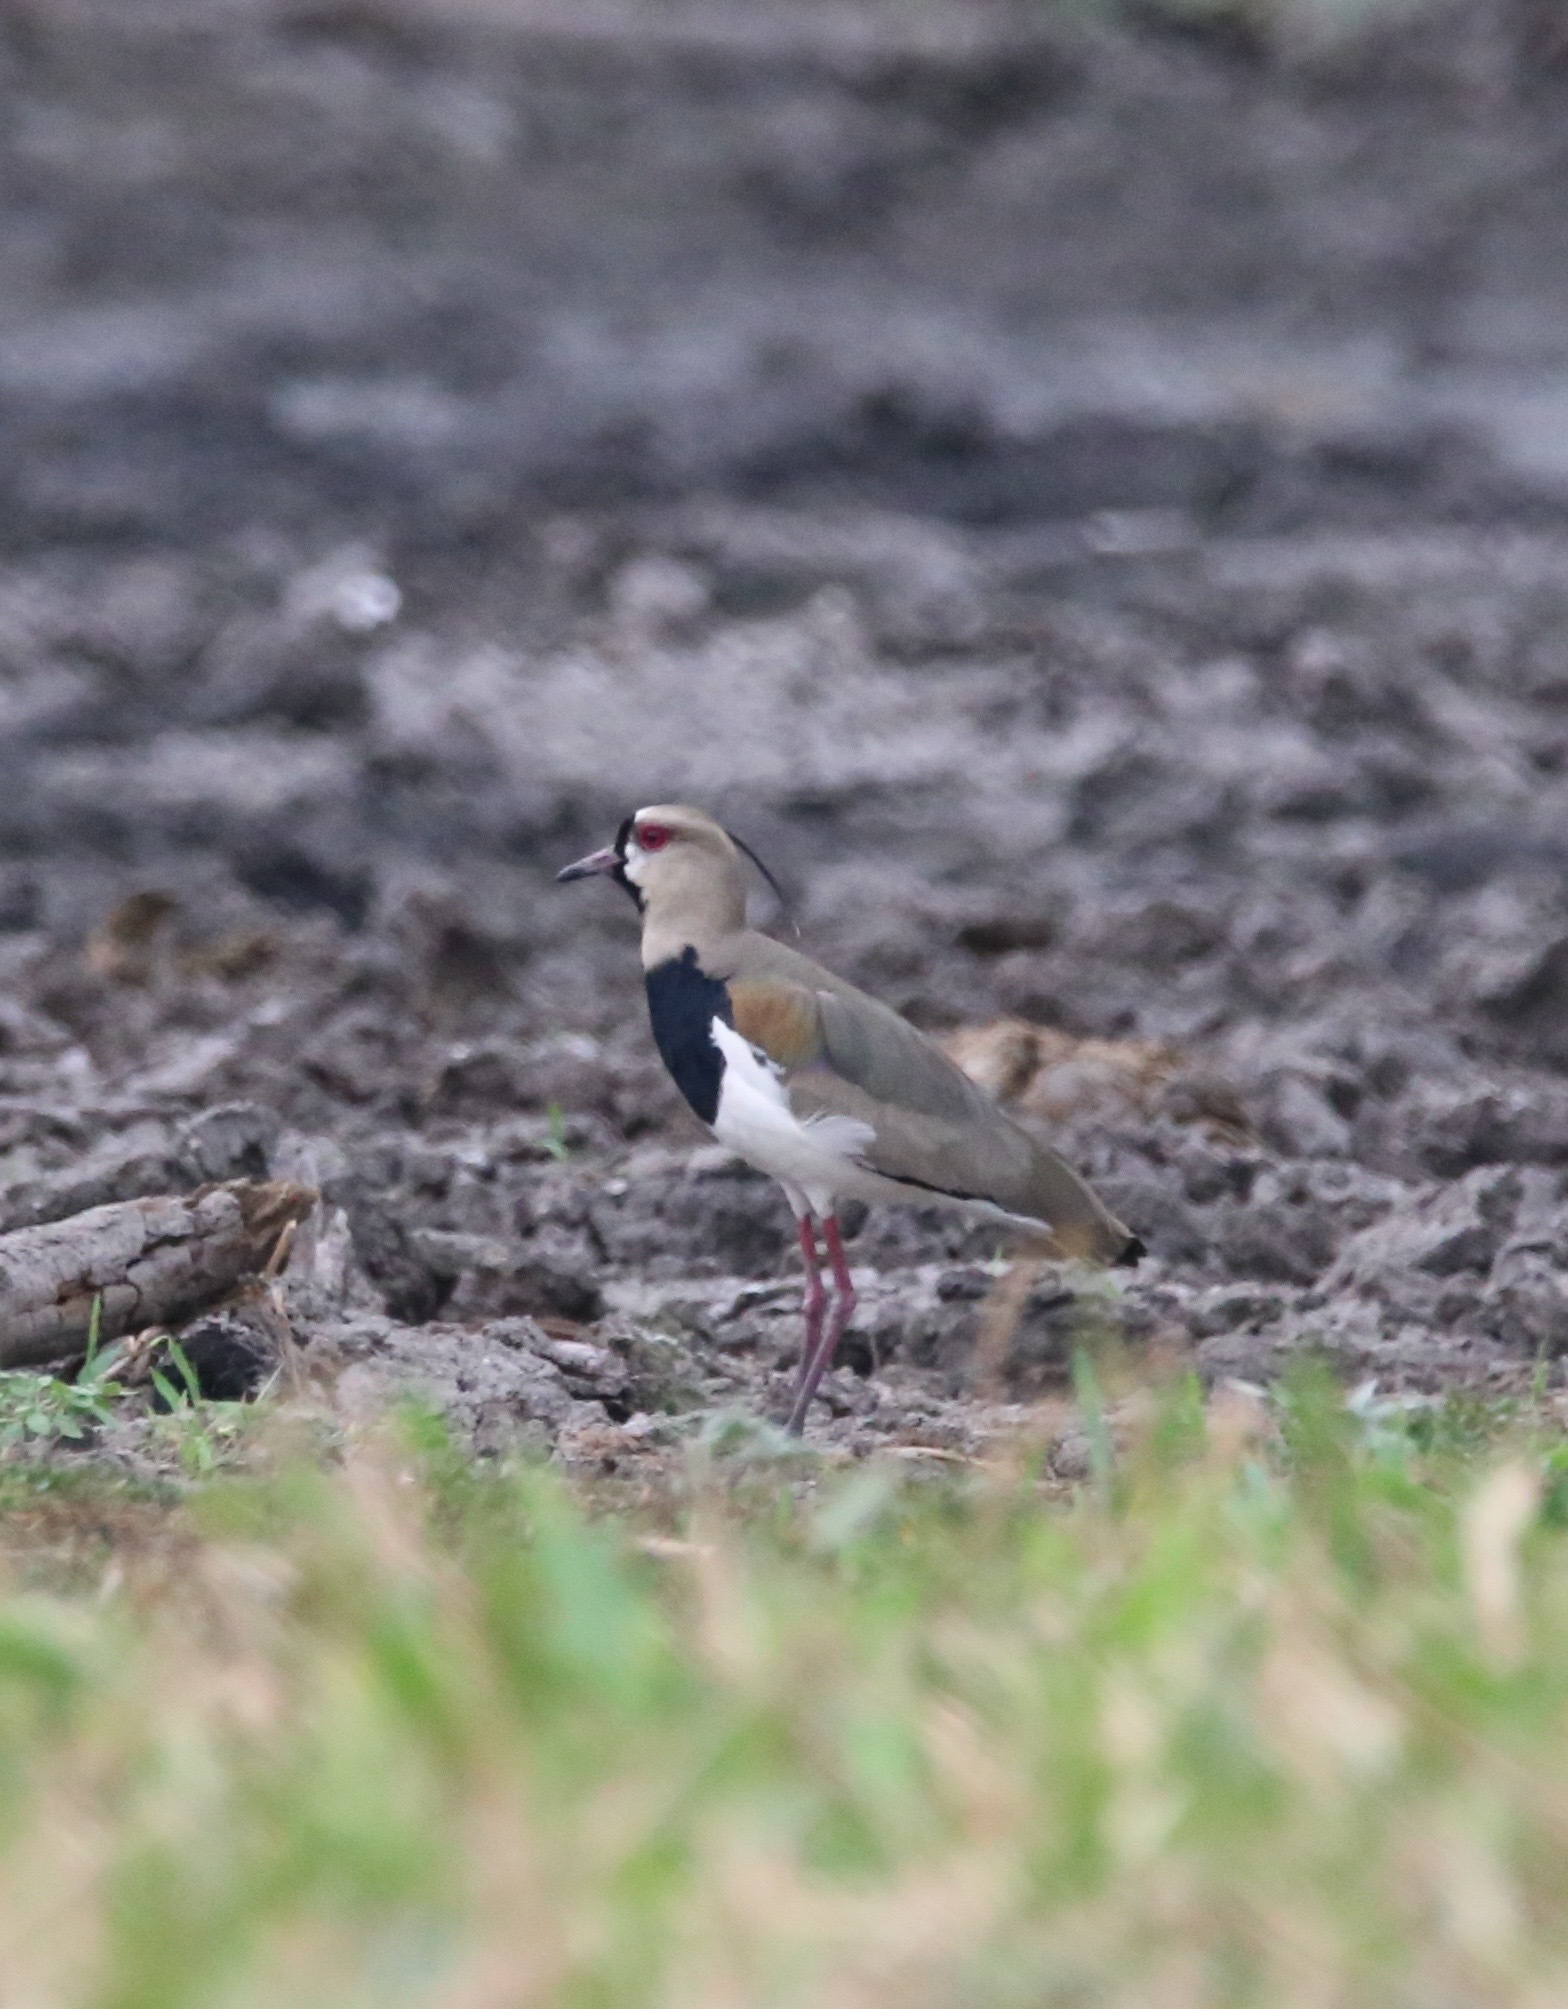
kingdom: Animalia
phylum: Chordata
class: Aves
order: Charadriiformes
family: Charadriidae
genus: Vanellus
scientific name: Vanellus chilensis
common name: Southern lapwing
